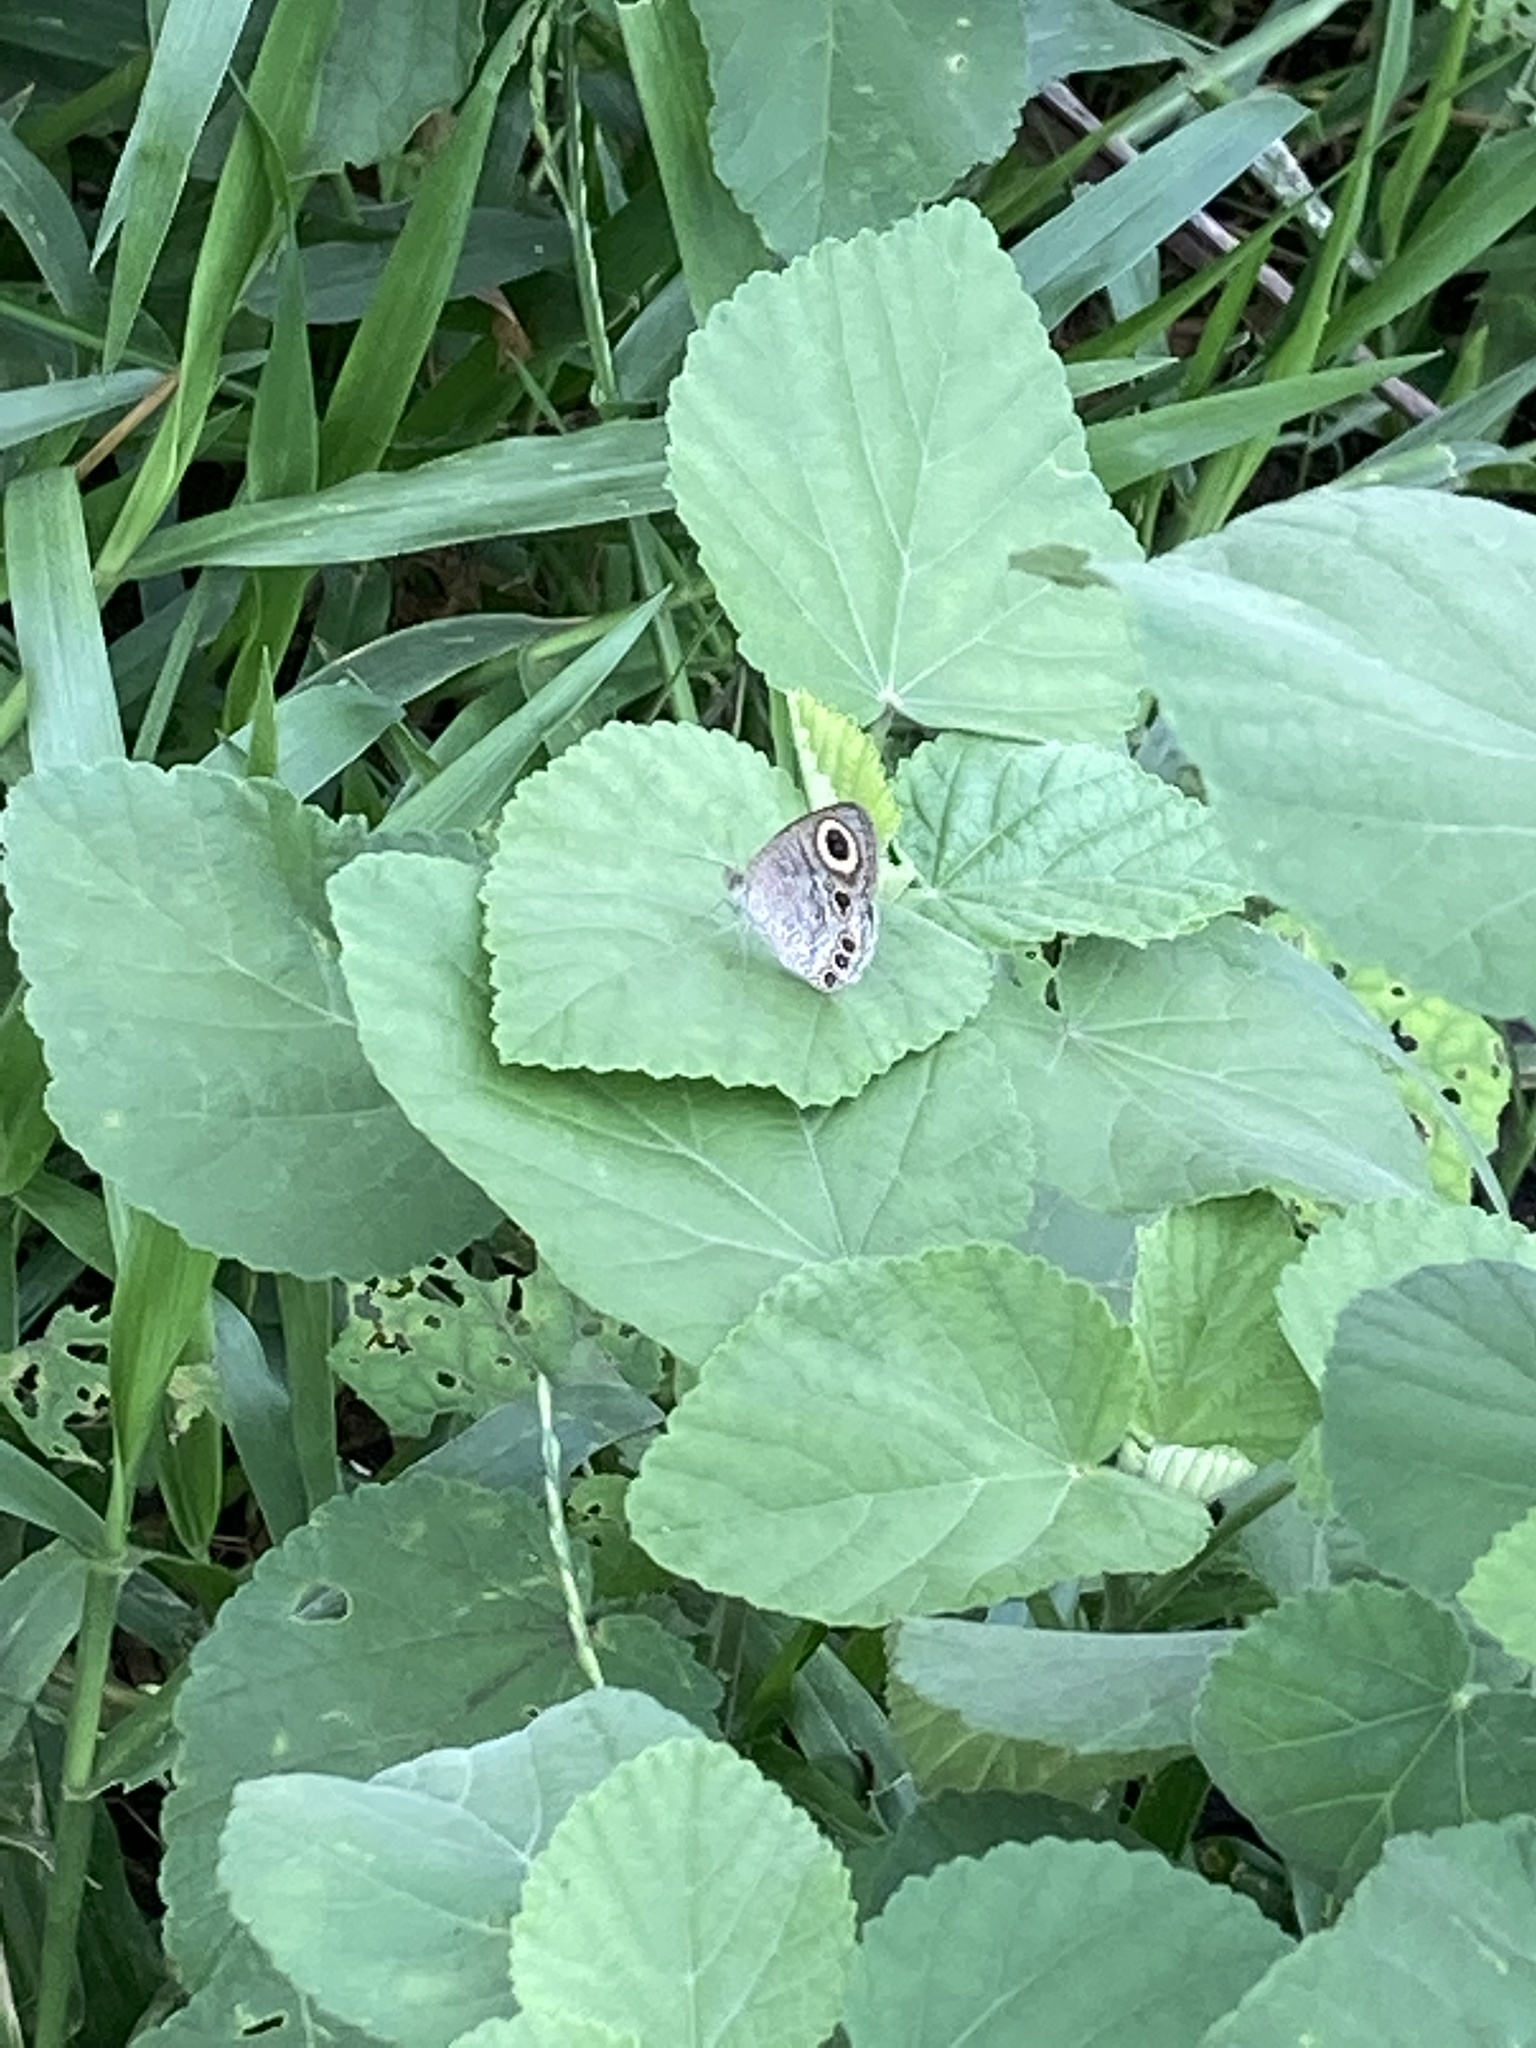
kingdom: Animalia
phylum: Arthropoda
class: Insecta
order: Lepidoptera
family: Nymphalidae
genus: Ypthima
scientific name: Ypthima huebneri
